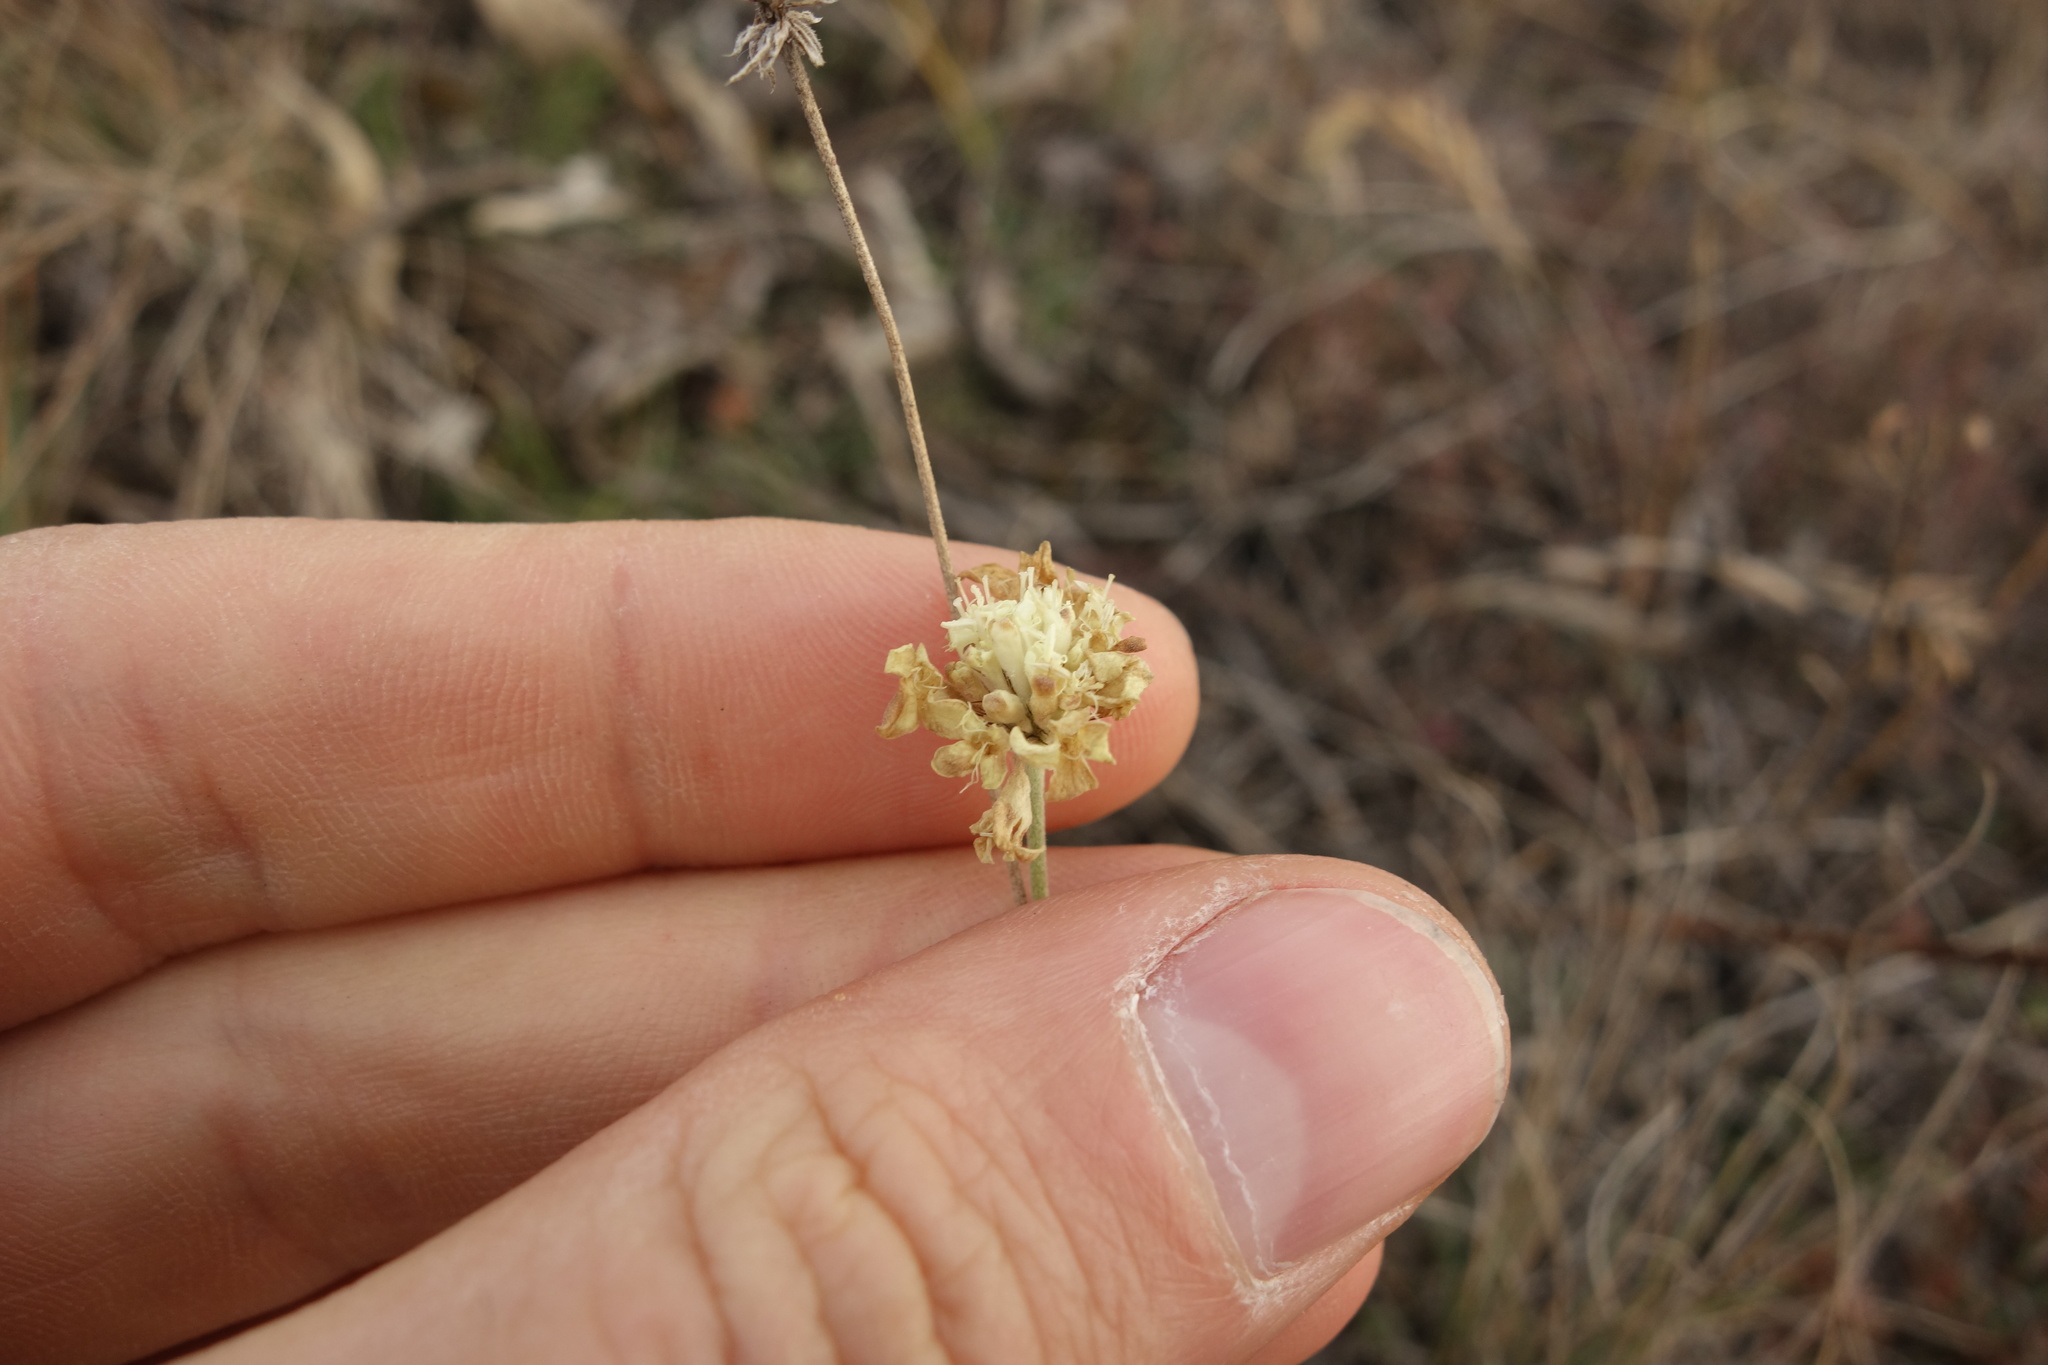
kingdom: Plantae
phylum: Tracheophyta
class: Magnoliopsida
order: Dipsacales
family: Caprifoliaceae
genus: Scabiosa
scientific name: Scabiosa ochroleuca
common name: Cream pincushions
